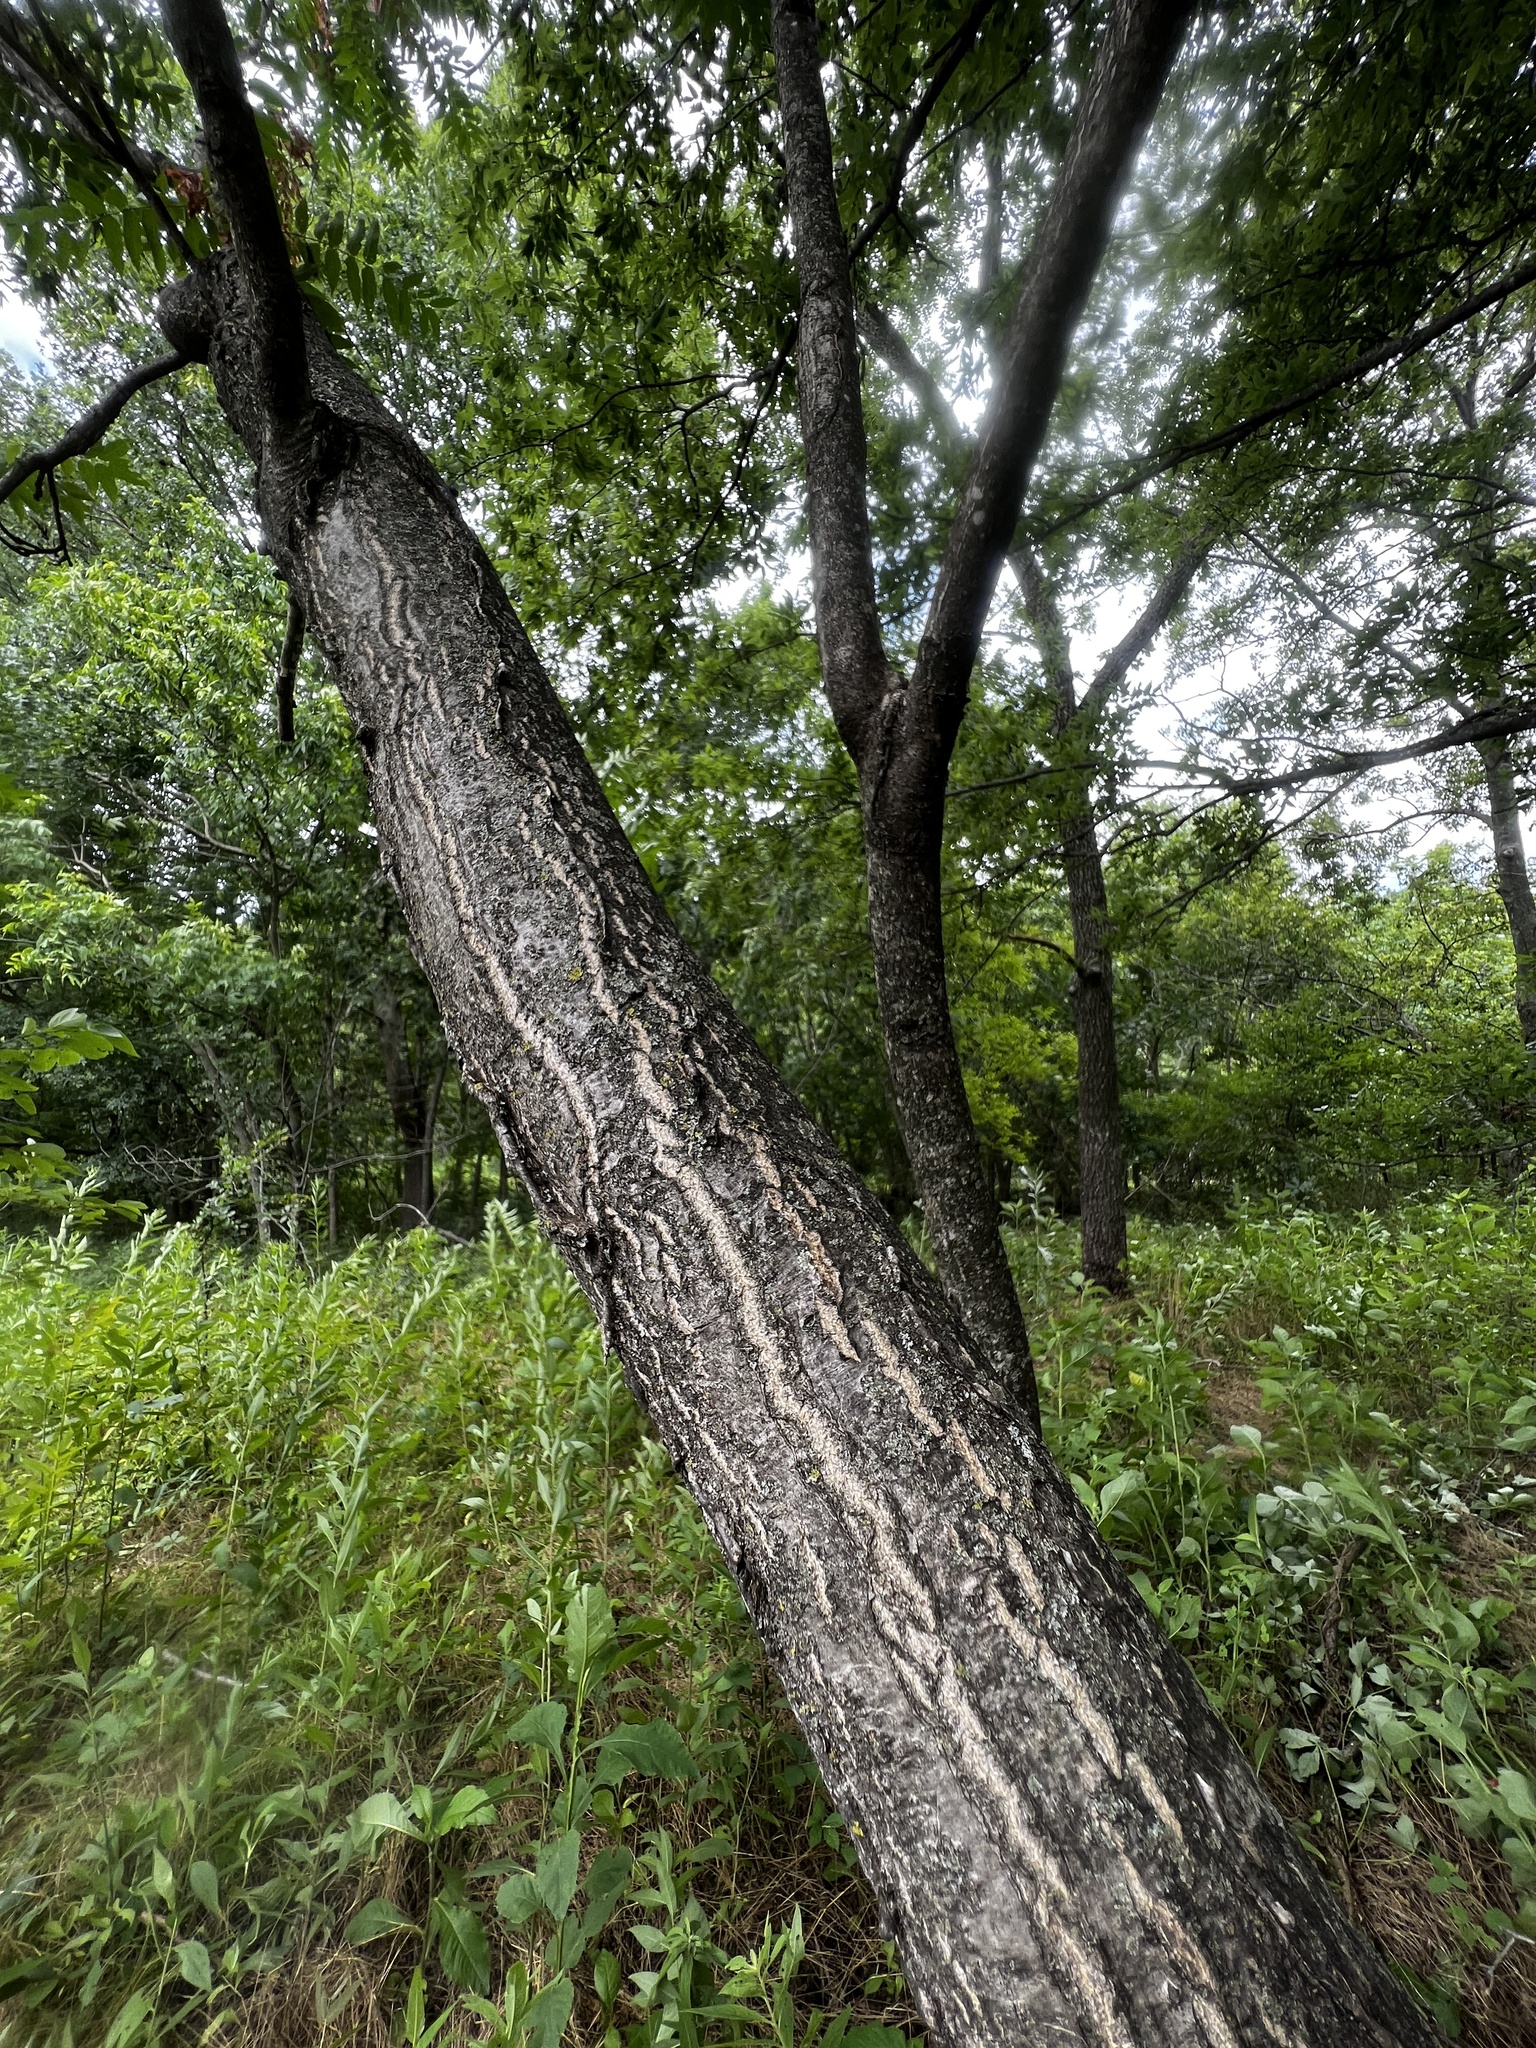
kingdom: Plantae
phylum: Tracheophyta
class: Magnoliopsida
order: Sapindales
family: Simaroubaceae
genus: Ailanthus
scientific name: Ailanthus altissima
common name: Tree-of-heaven
